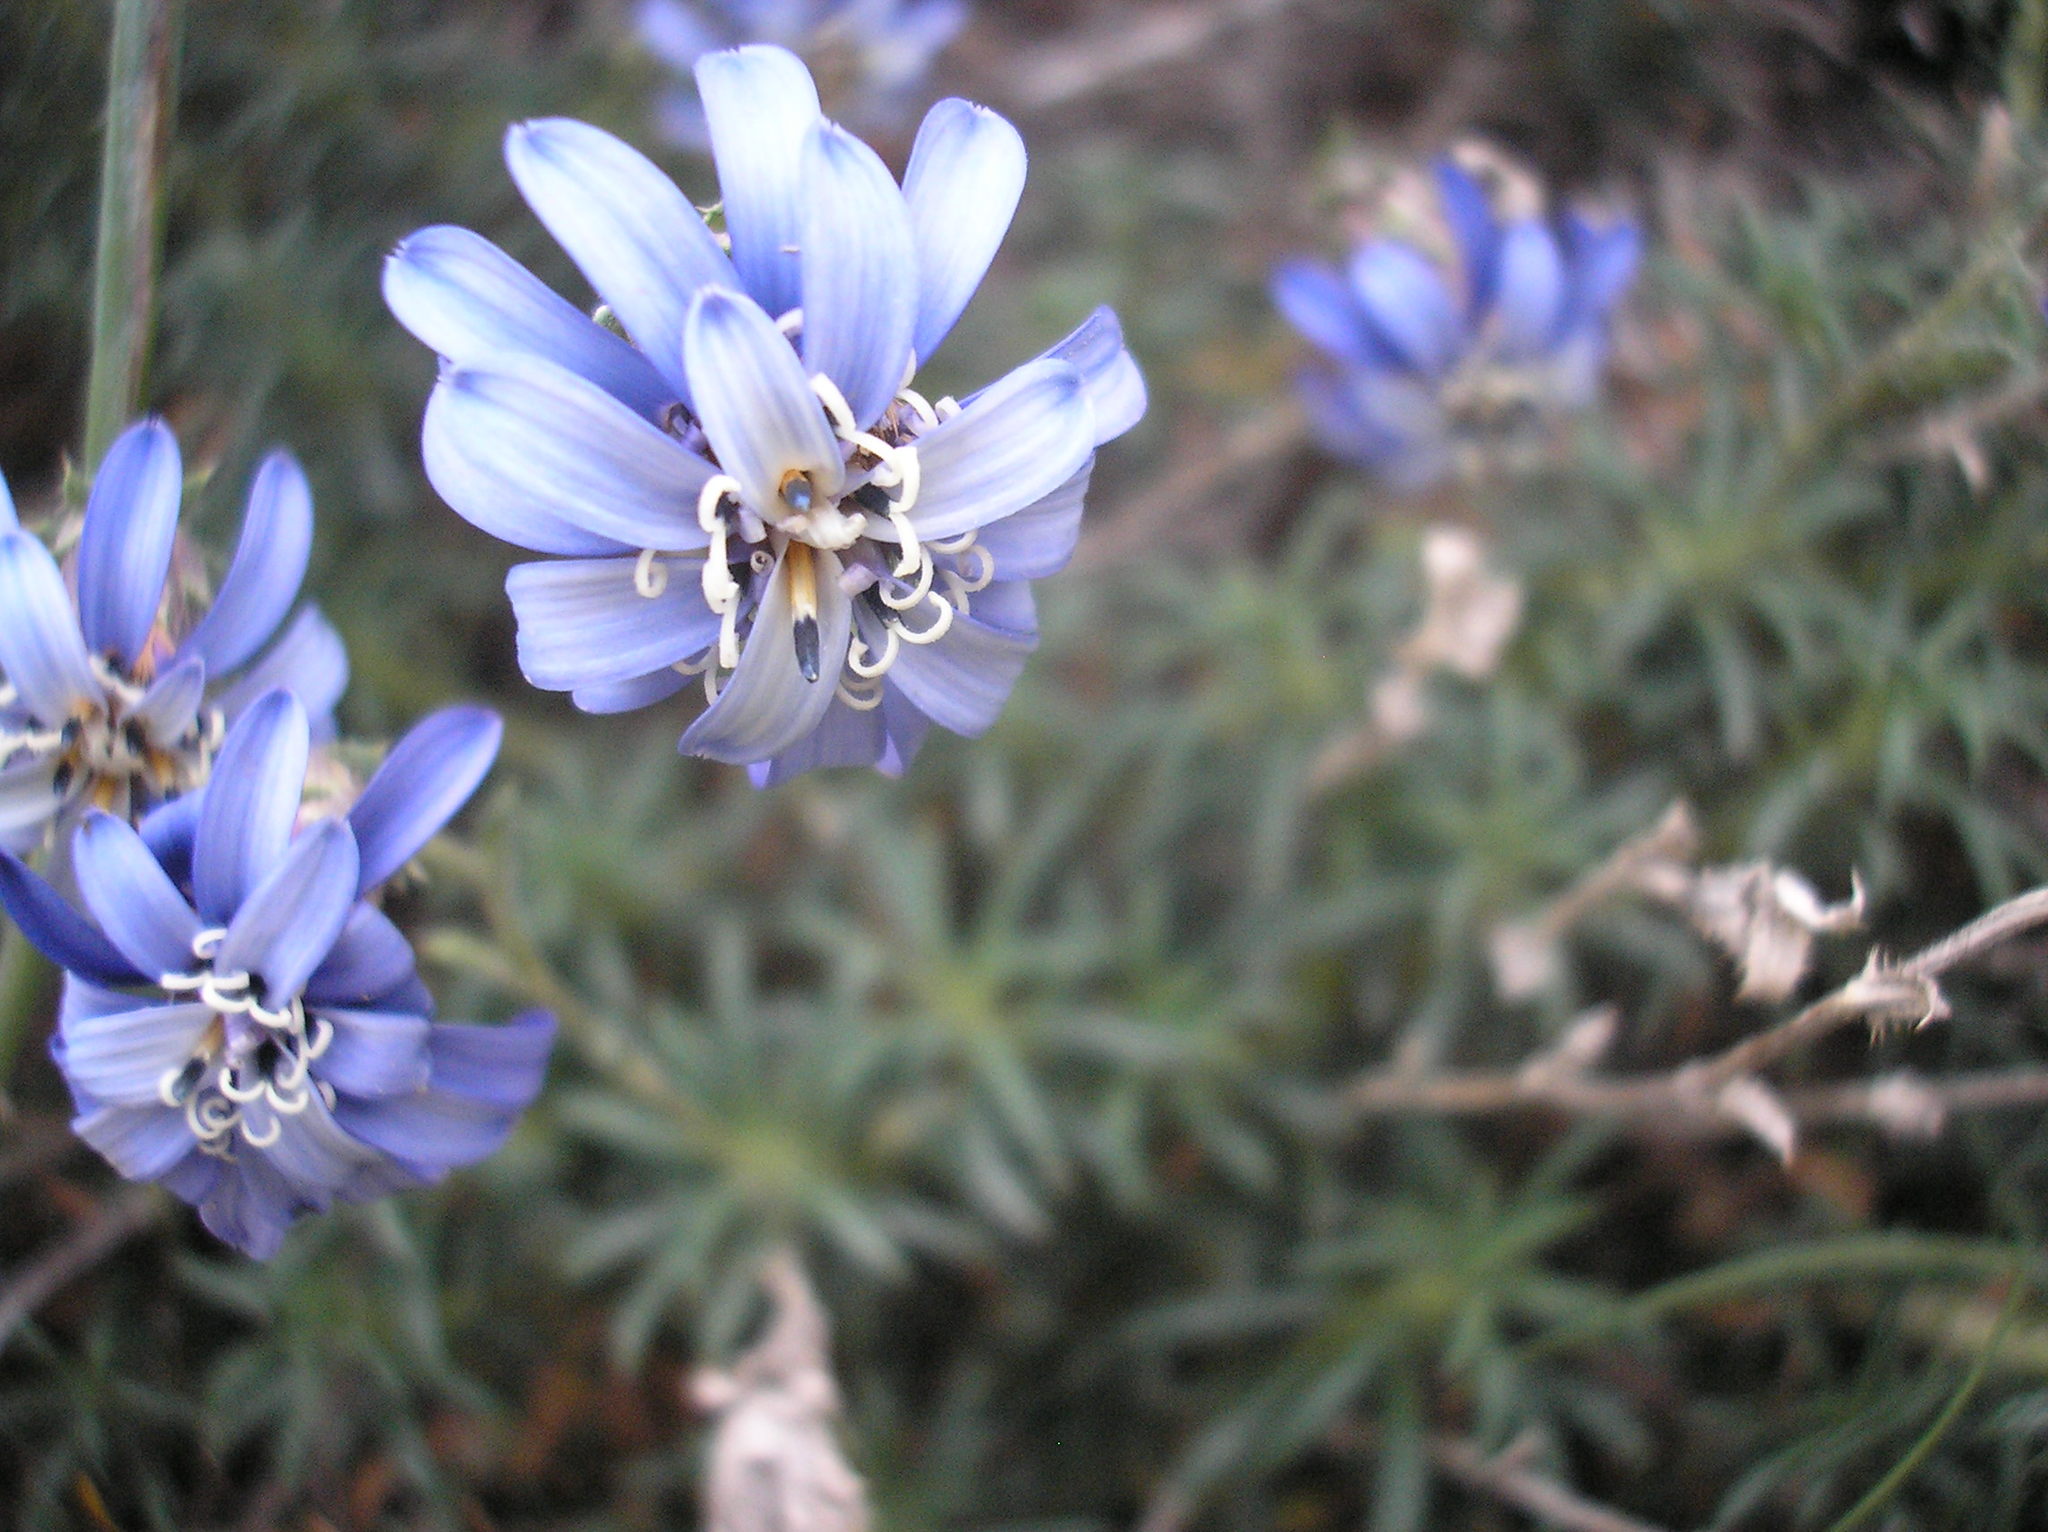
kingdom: Plantae
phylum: Tracheophyta
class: Magnoliopsida
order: Asterales
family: Asteraceae
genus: Perezia
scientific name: Perezia recurvata
